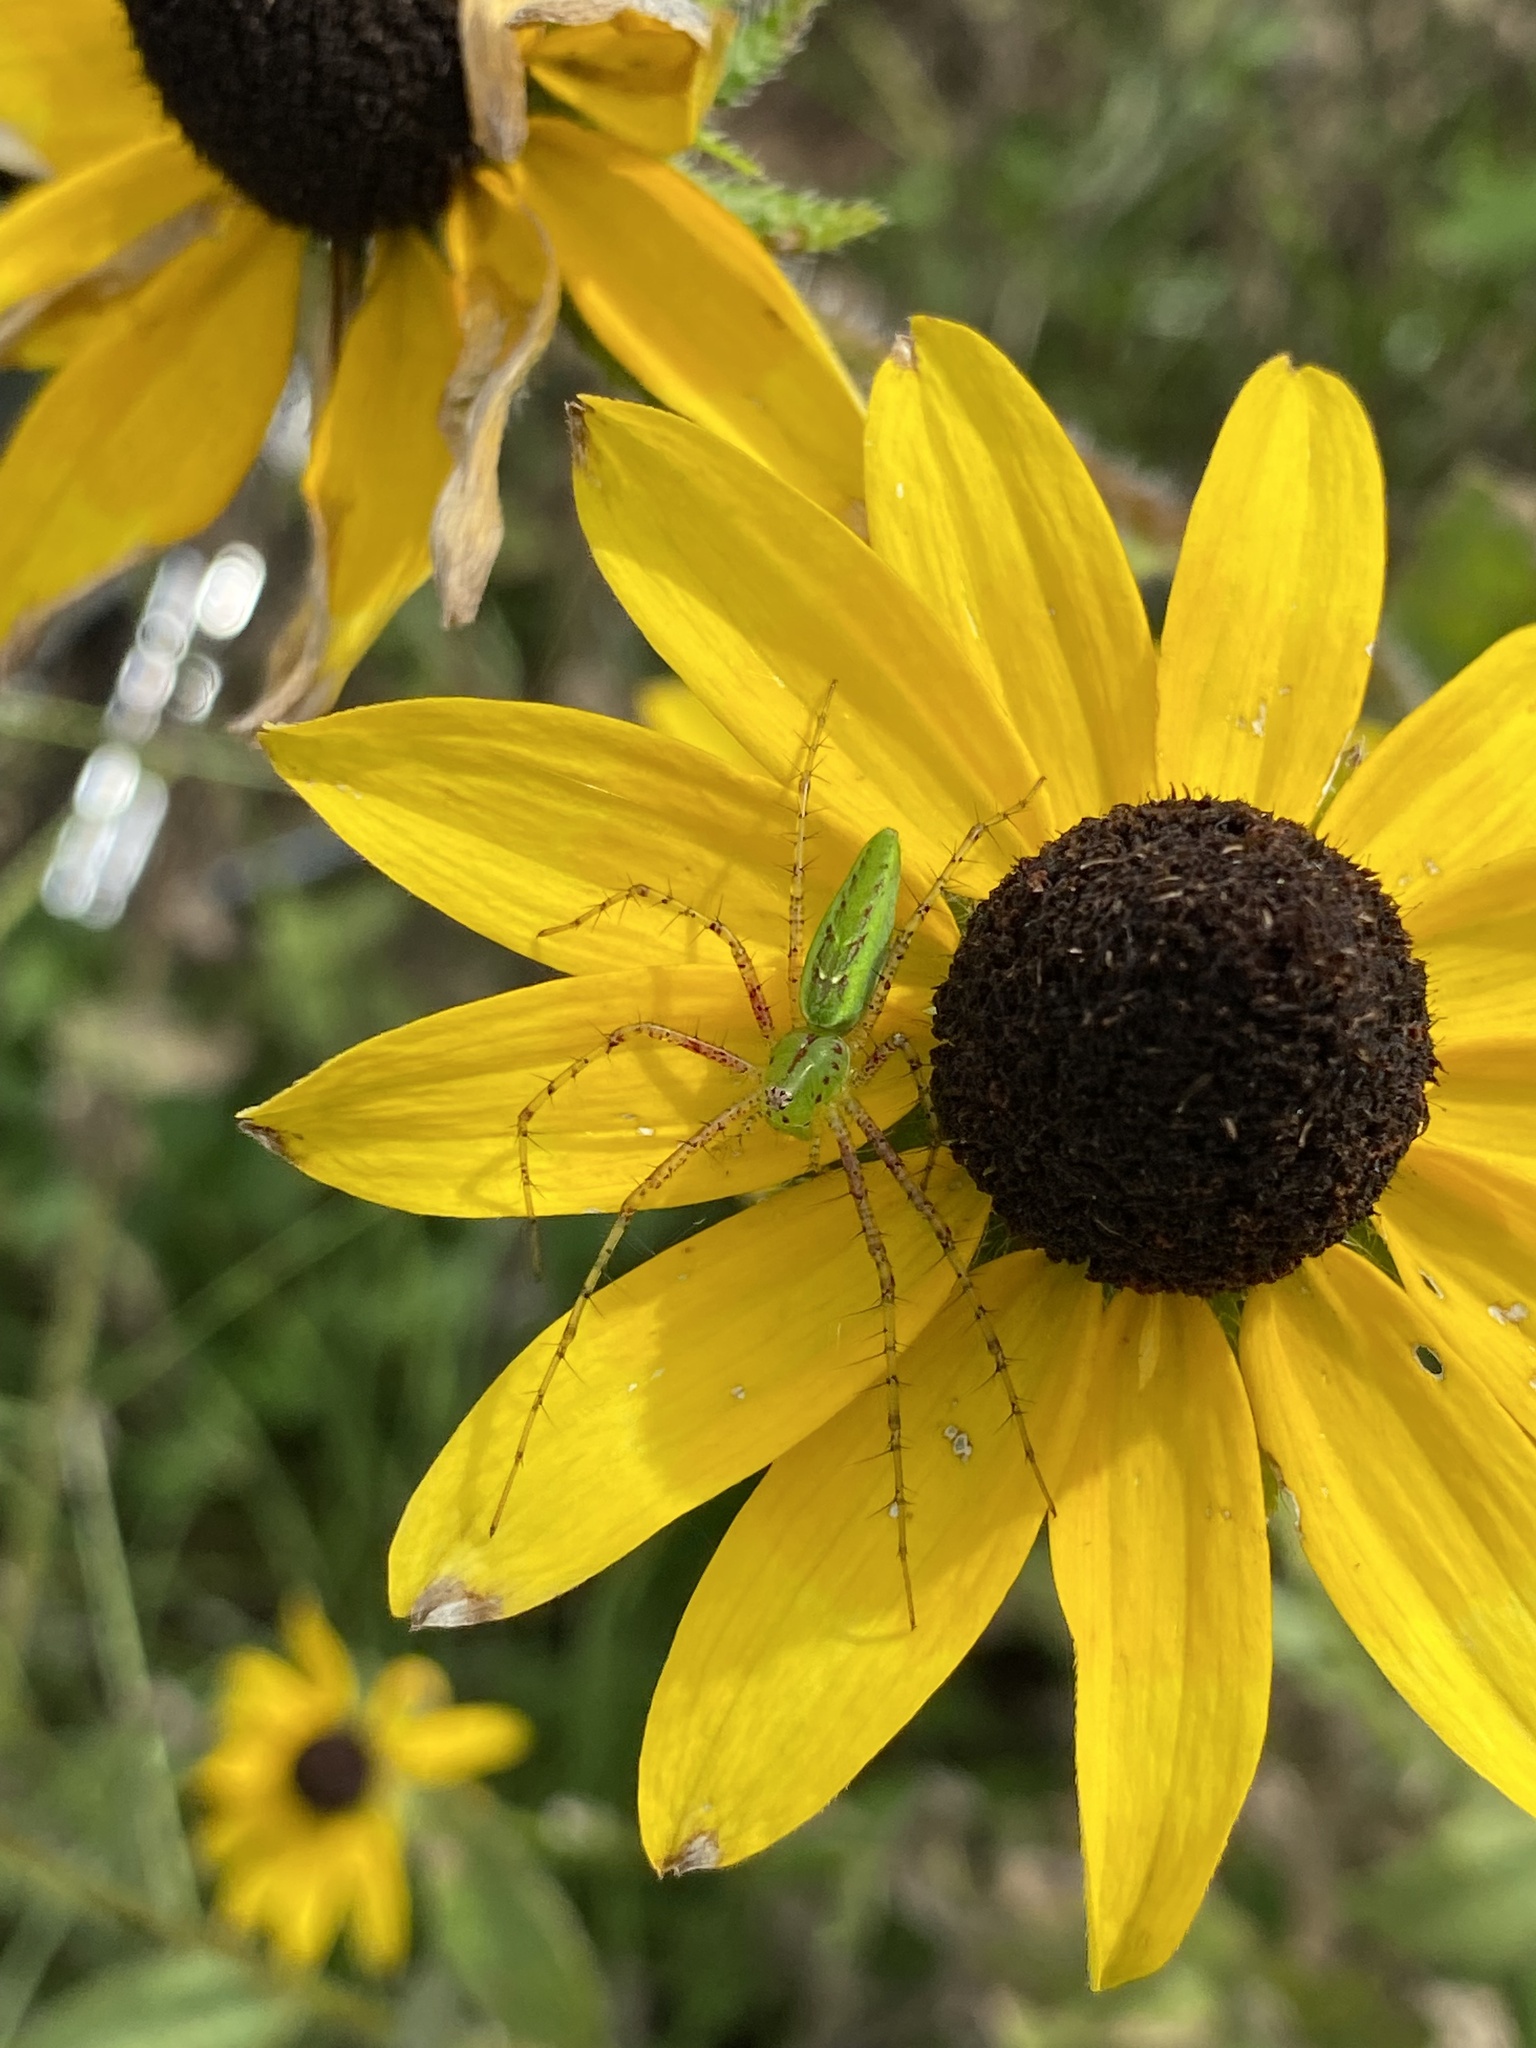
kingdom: Animalia
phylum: Arthropoda
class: Arachnida
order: Araneae
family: Oxyopidae
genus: Peucetia
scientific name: Peucetia viridans
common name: Lynx spiders
